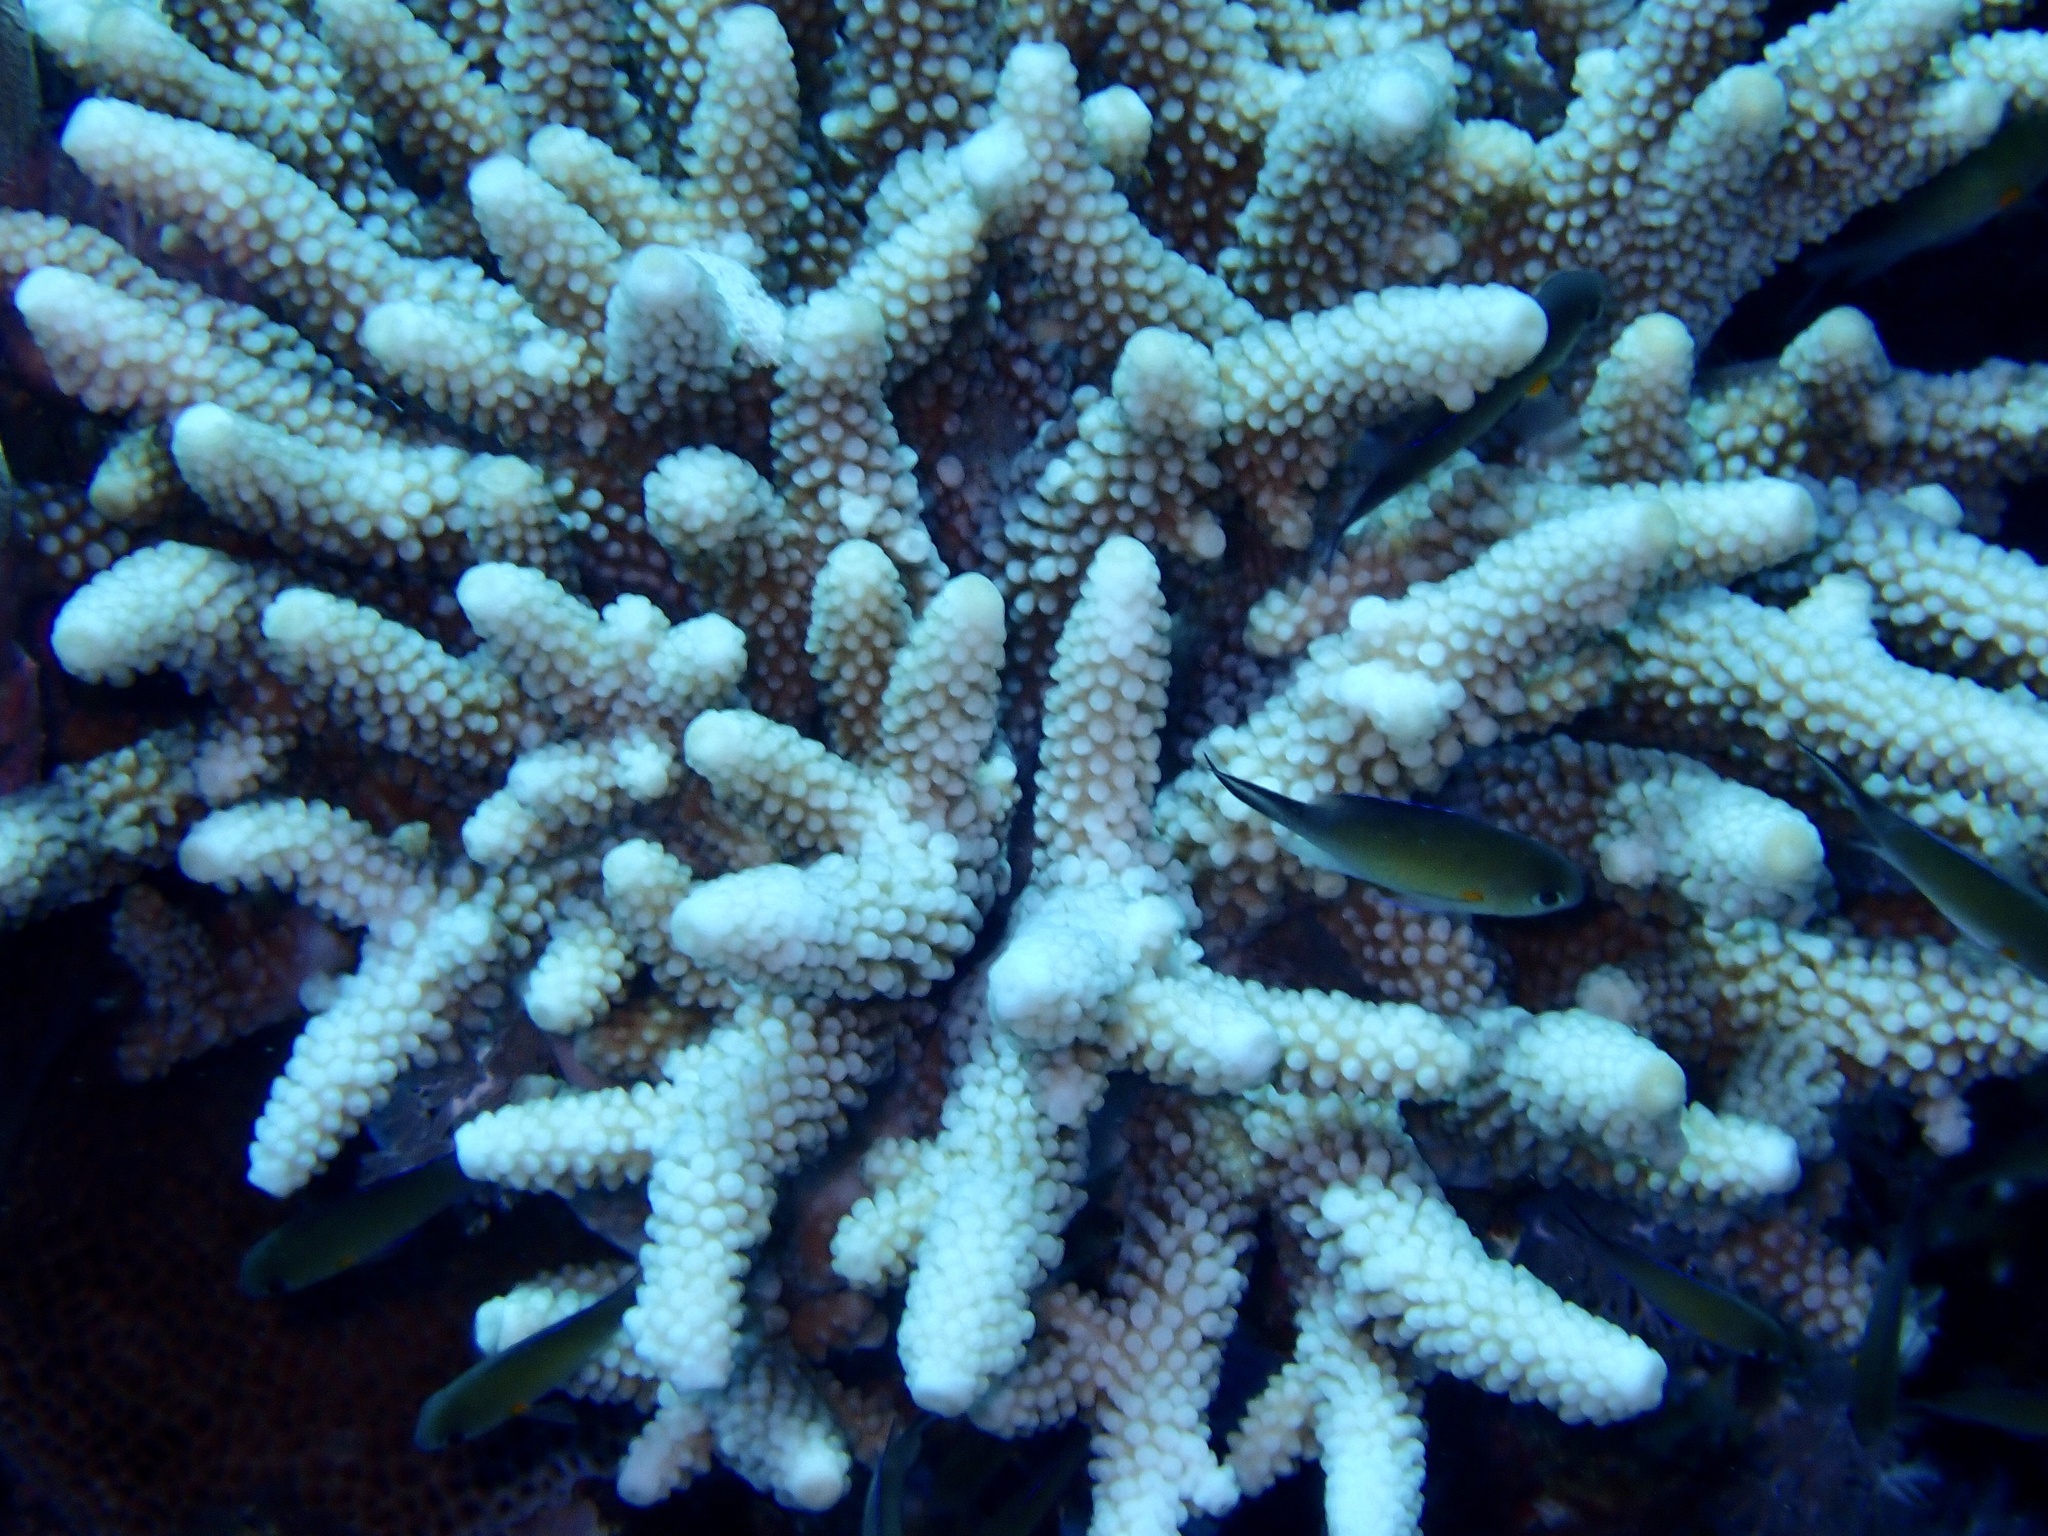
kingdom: Animalia
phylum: Cnidaria
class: Anthozoa
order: Scleractinia
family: Acroporidae
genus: Acropora
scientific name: Acropora humilis
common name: Finger coral
